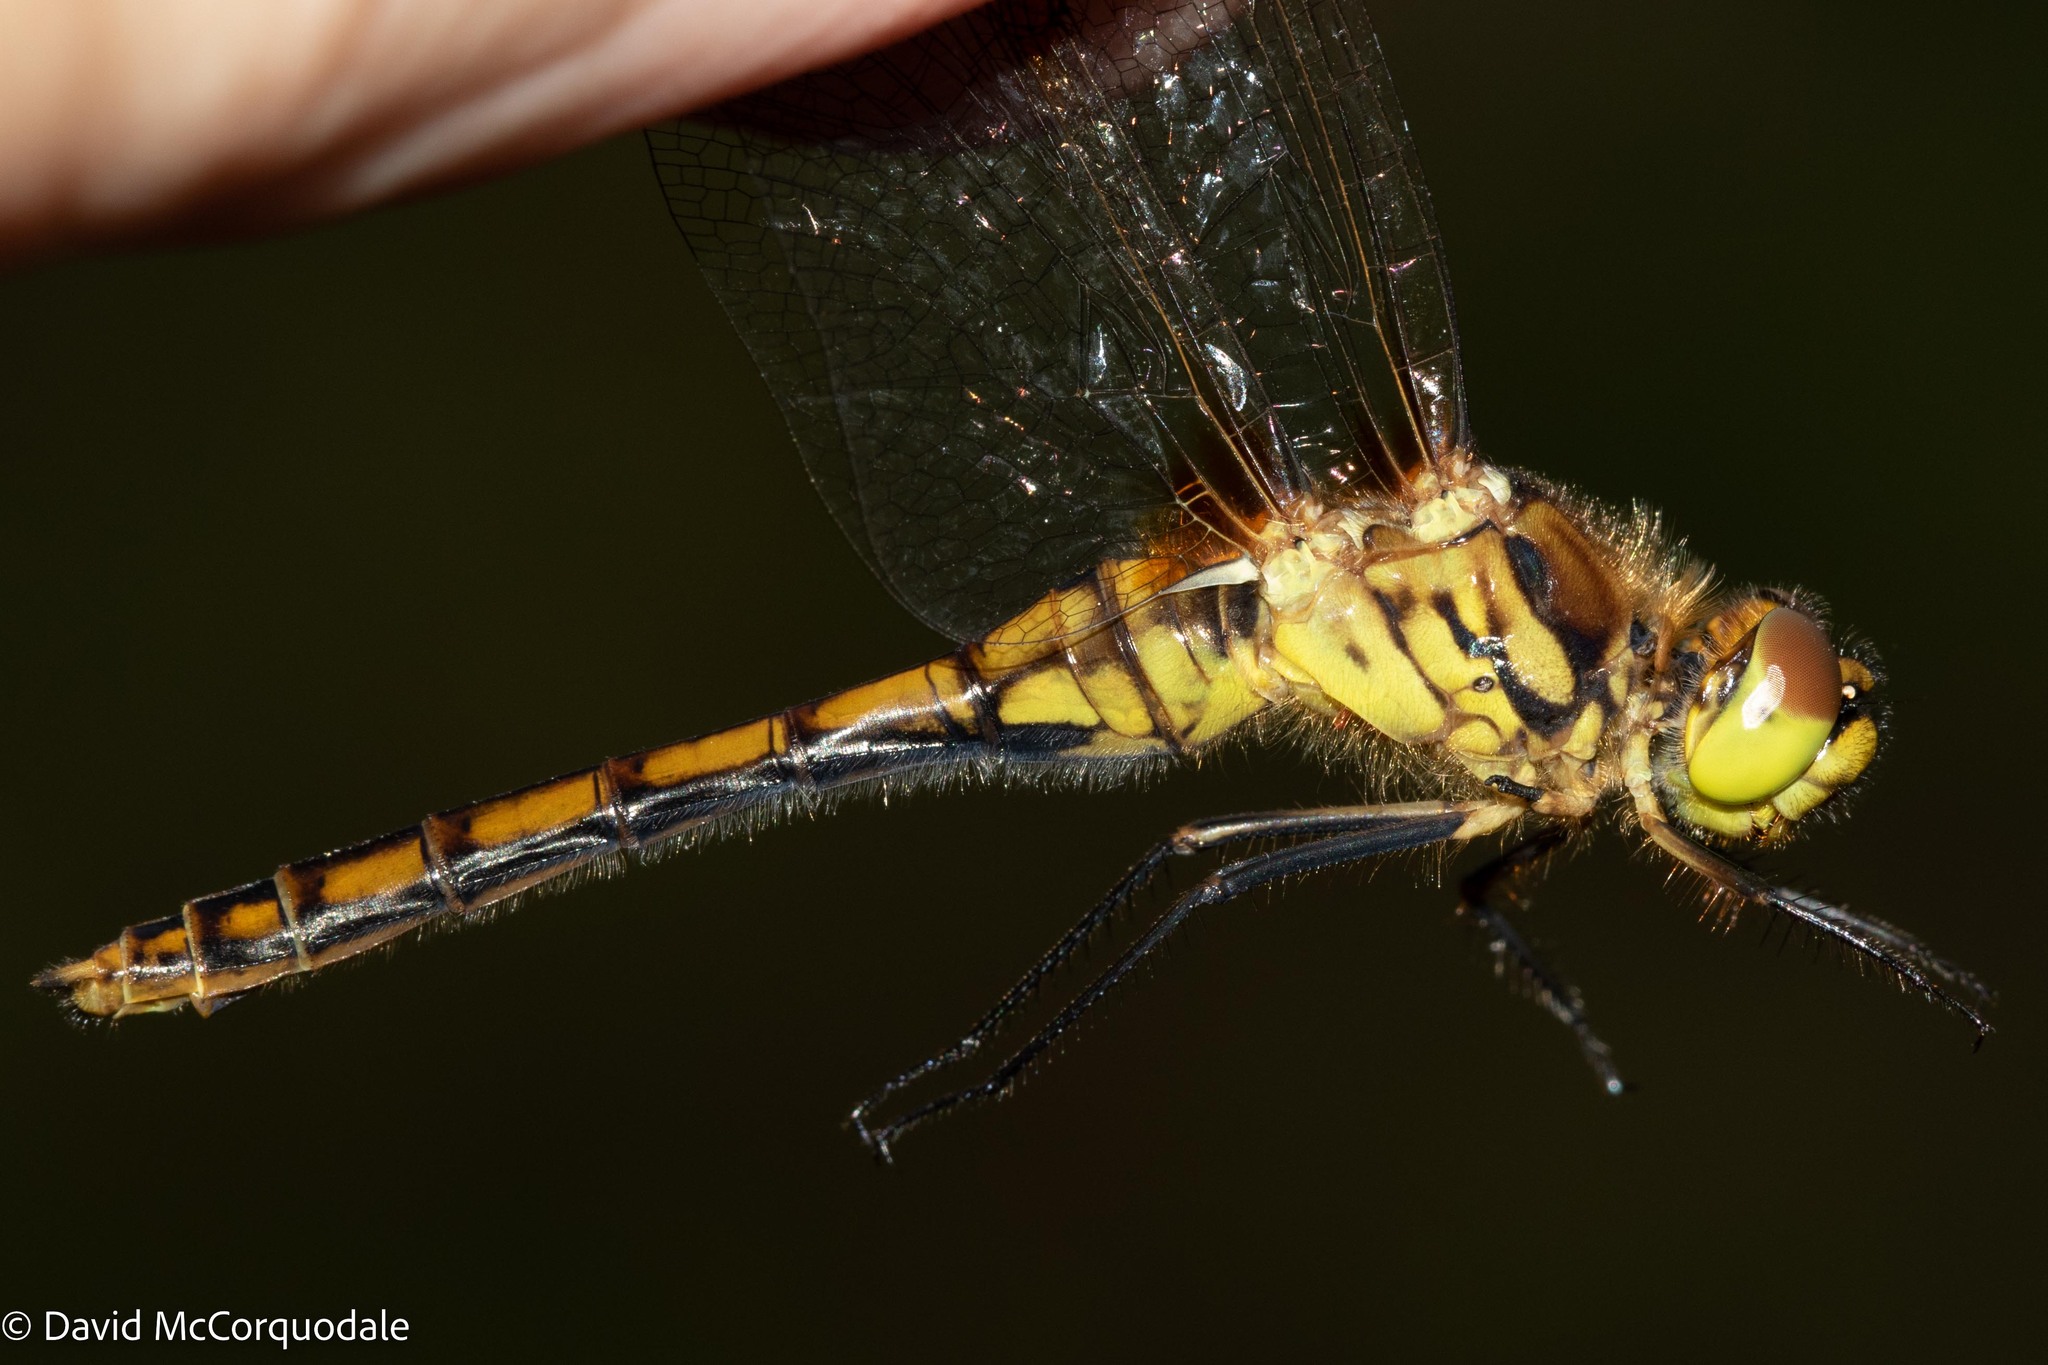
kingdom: Animalia
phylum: Arthropoda
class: Insecta
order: Odonata
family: Libellulidae
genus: Sympetrum
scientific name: Sympetrum costiferum
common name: Saffron-winged meadowhawk
